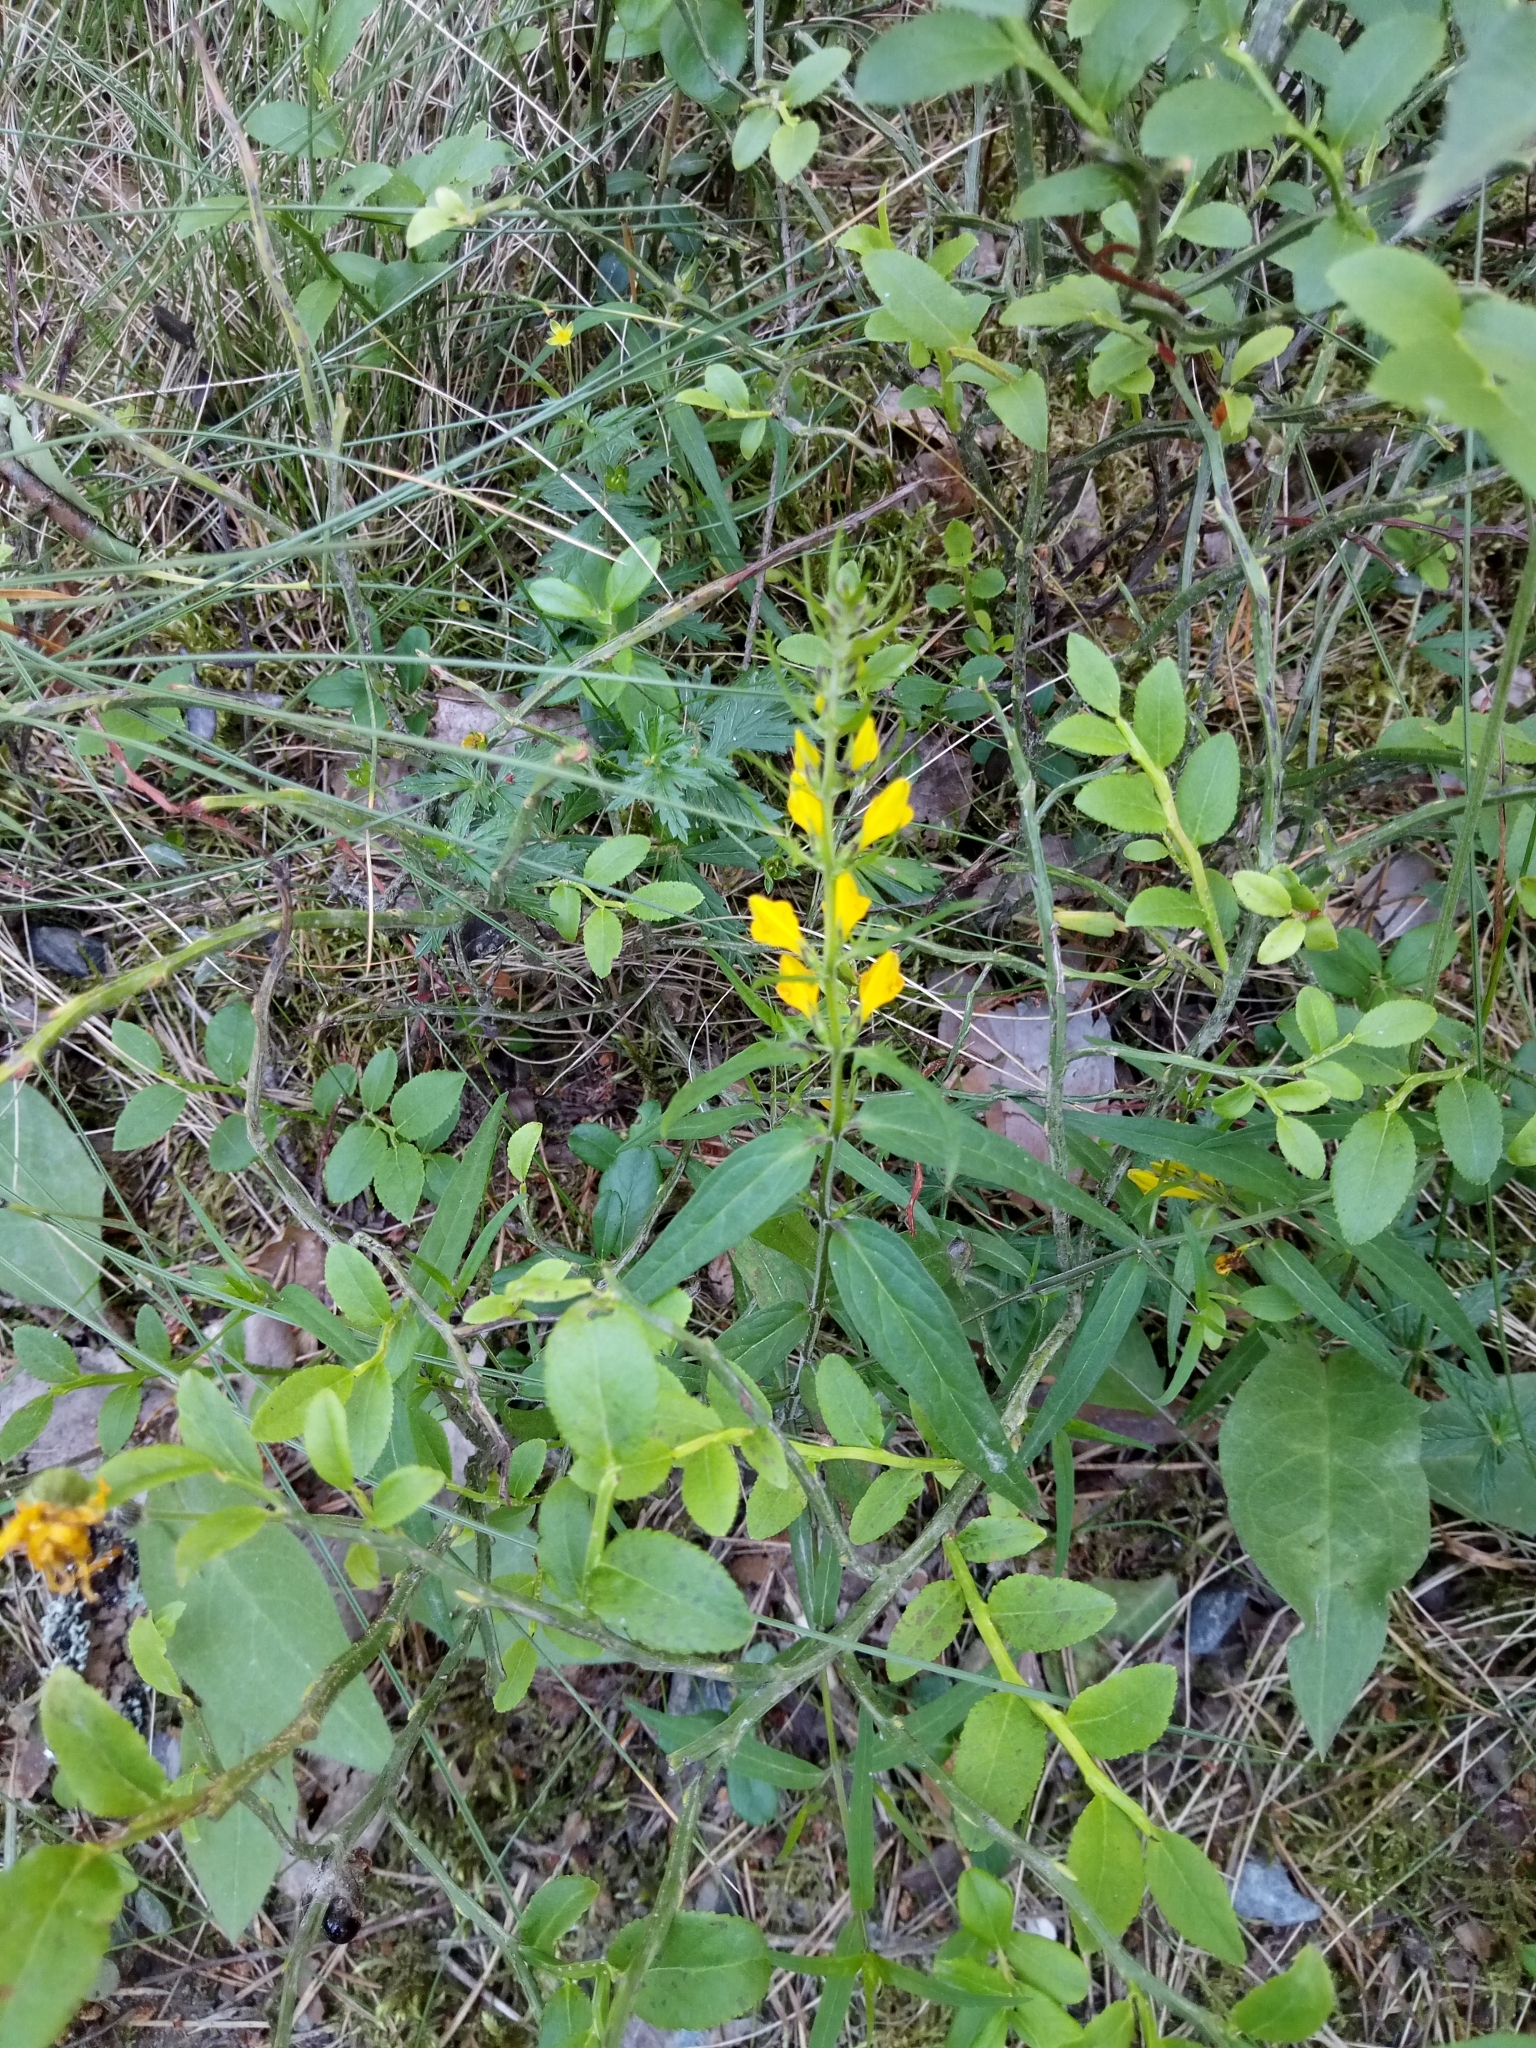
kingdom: Plantae
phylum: Tracheophyta
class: Magnoliopsida
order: Lamiales
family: Orobanchaceae
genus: Melampyrum
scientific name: Melampyrum pratense
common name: Common cow-wheat
